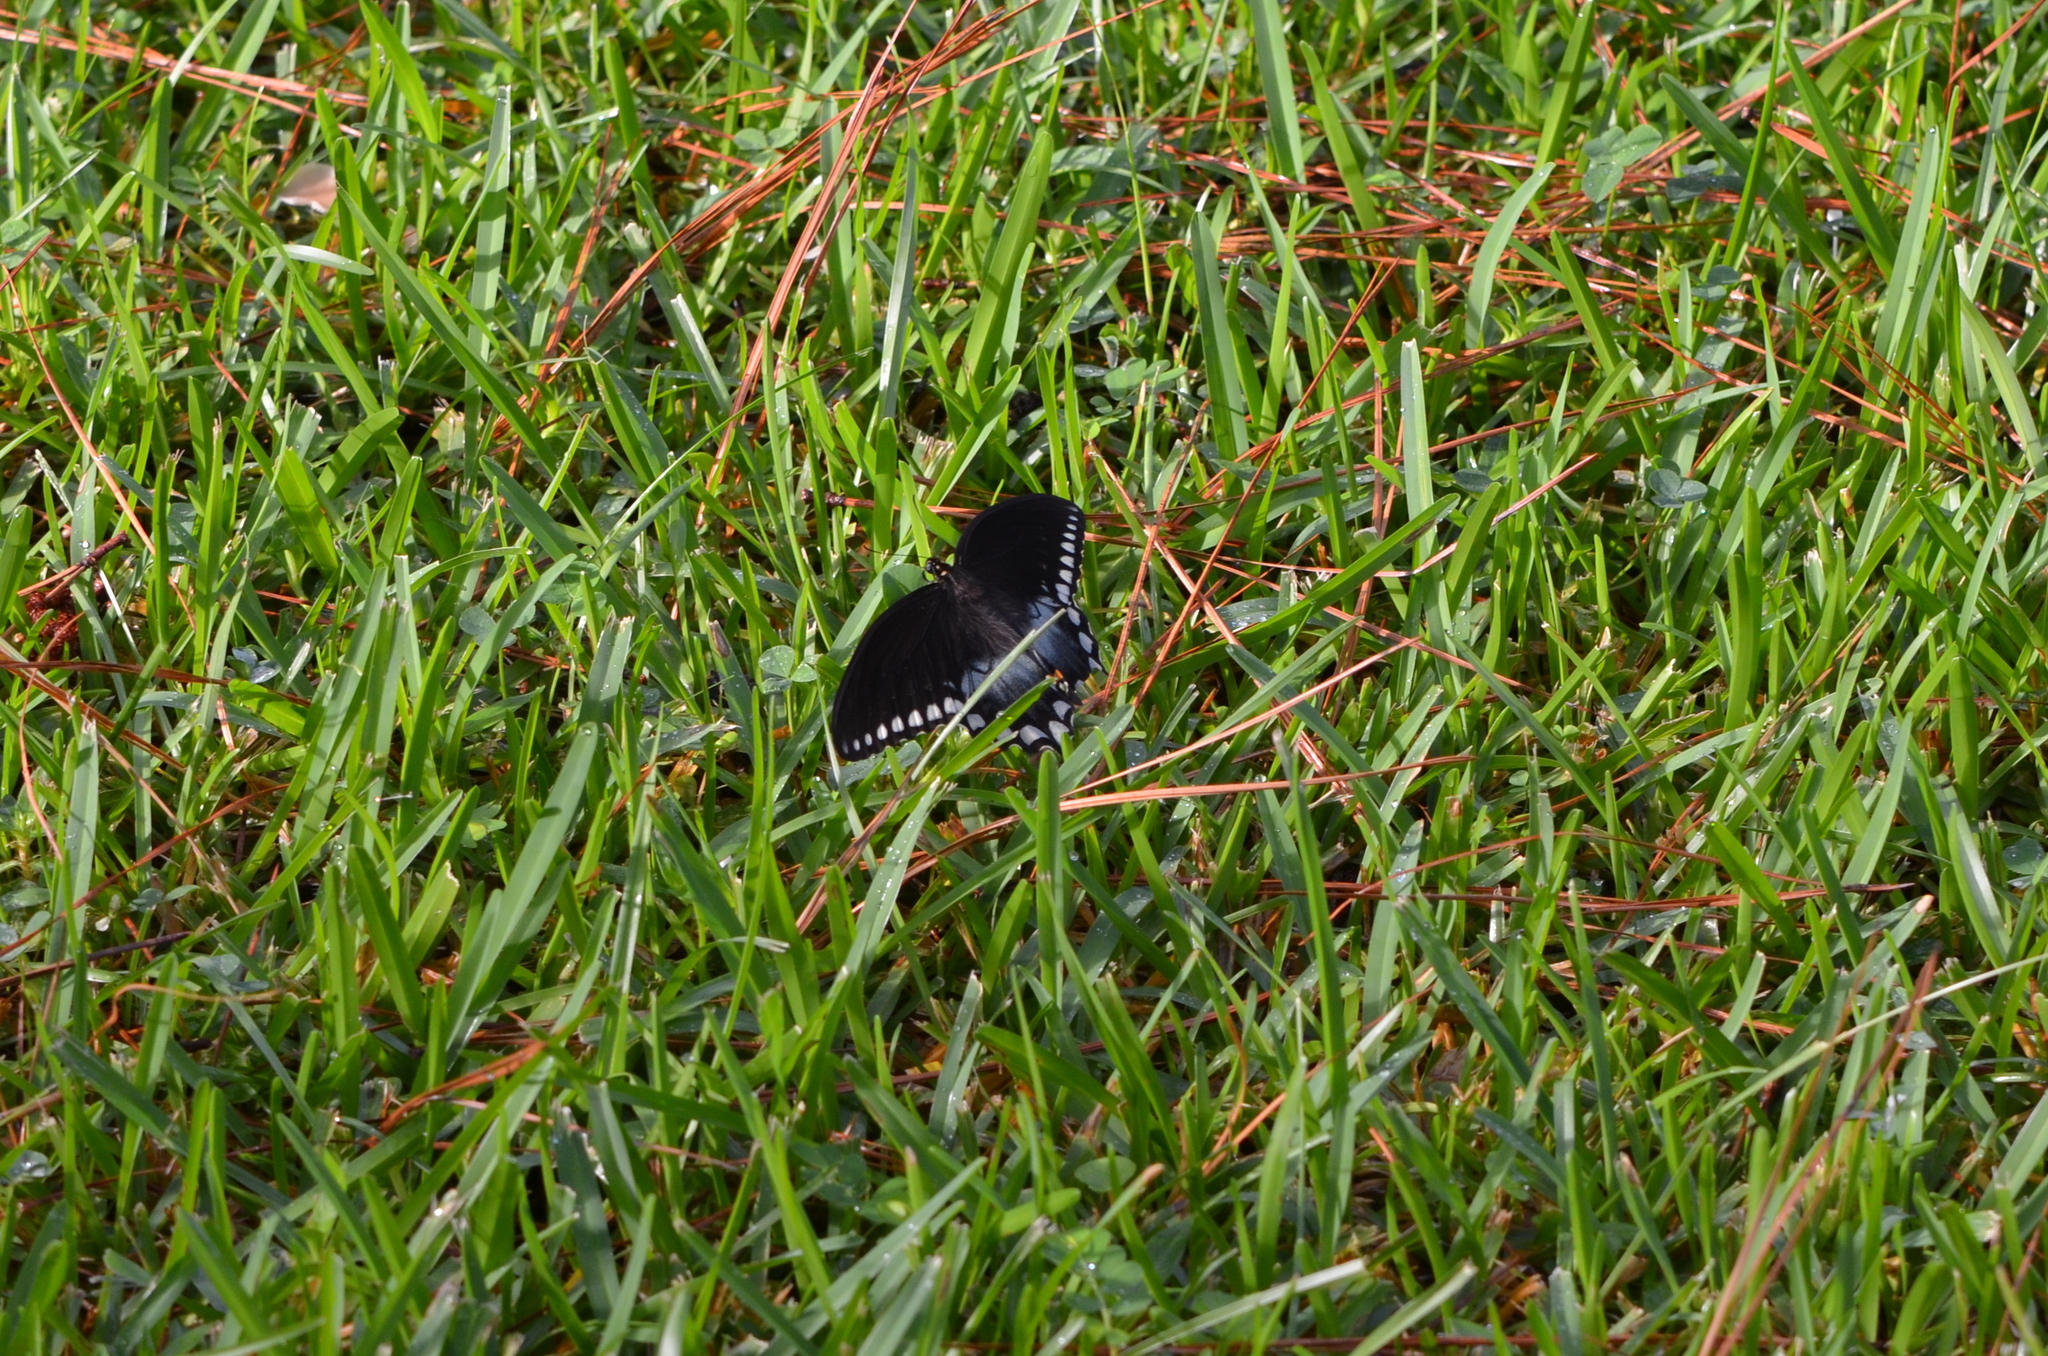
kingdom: Animalia
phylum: Arthropoda
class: Insecta
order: Lepidoptera
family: Papilionidae
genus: Papilio
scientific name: Papilio troilus
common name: Spicebush swallowtail
